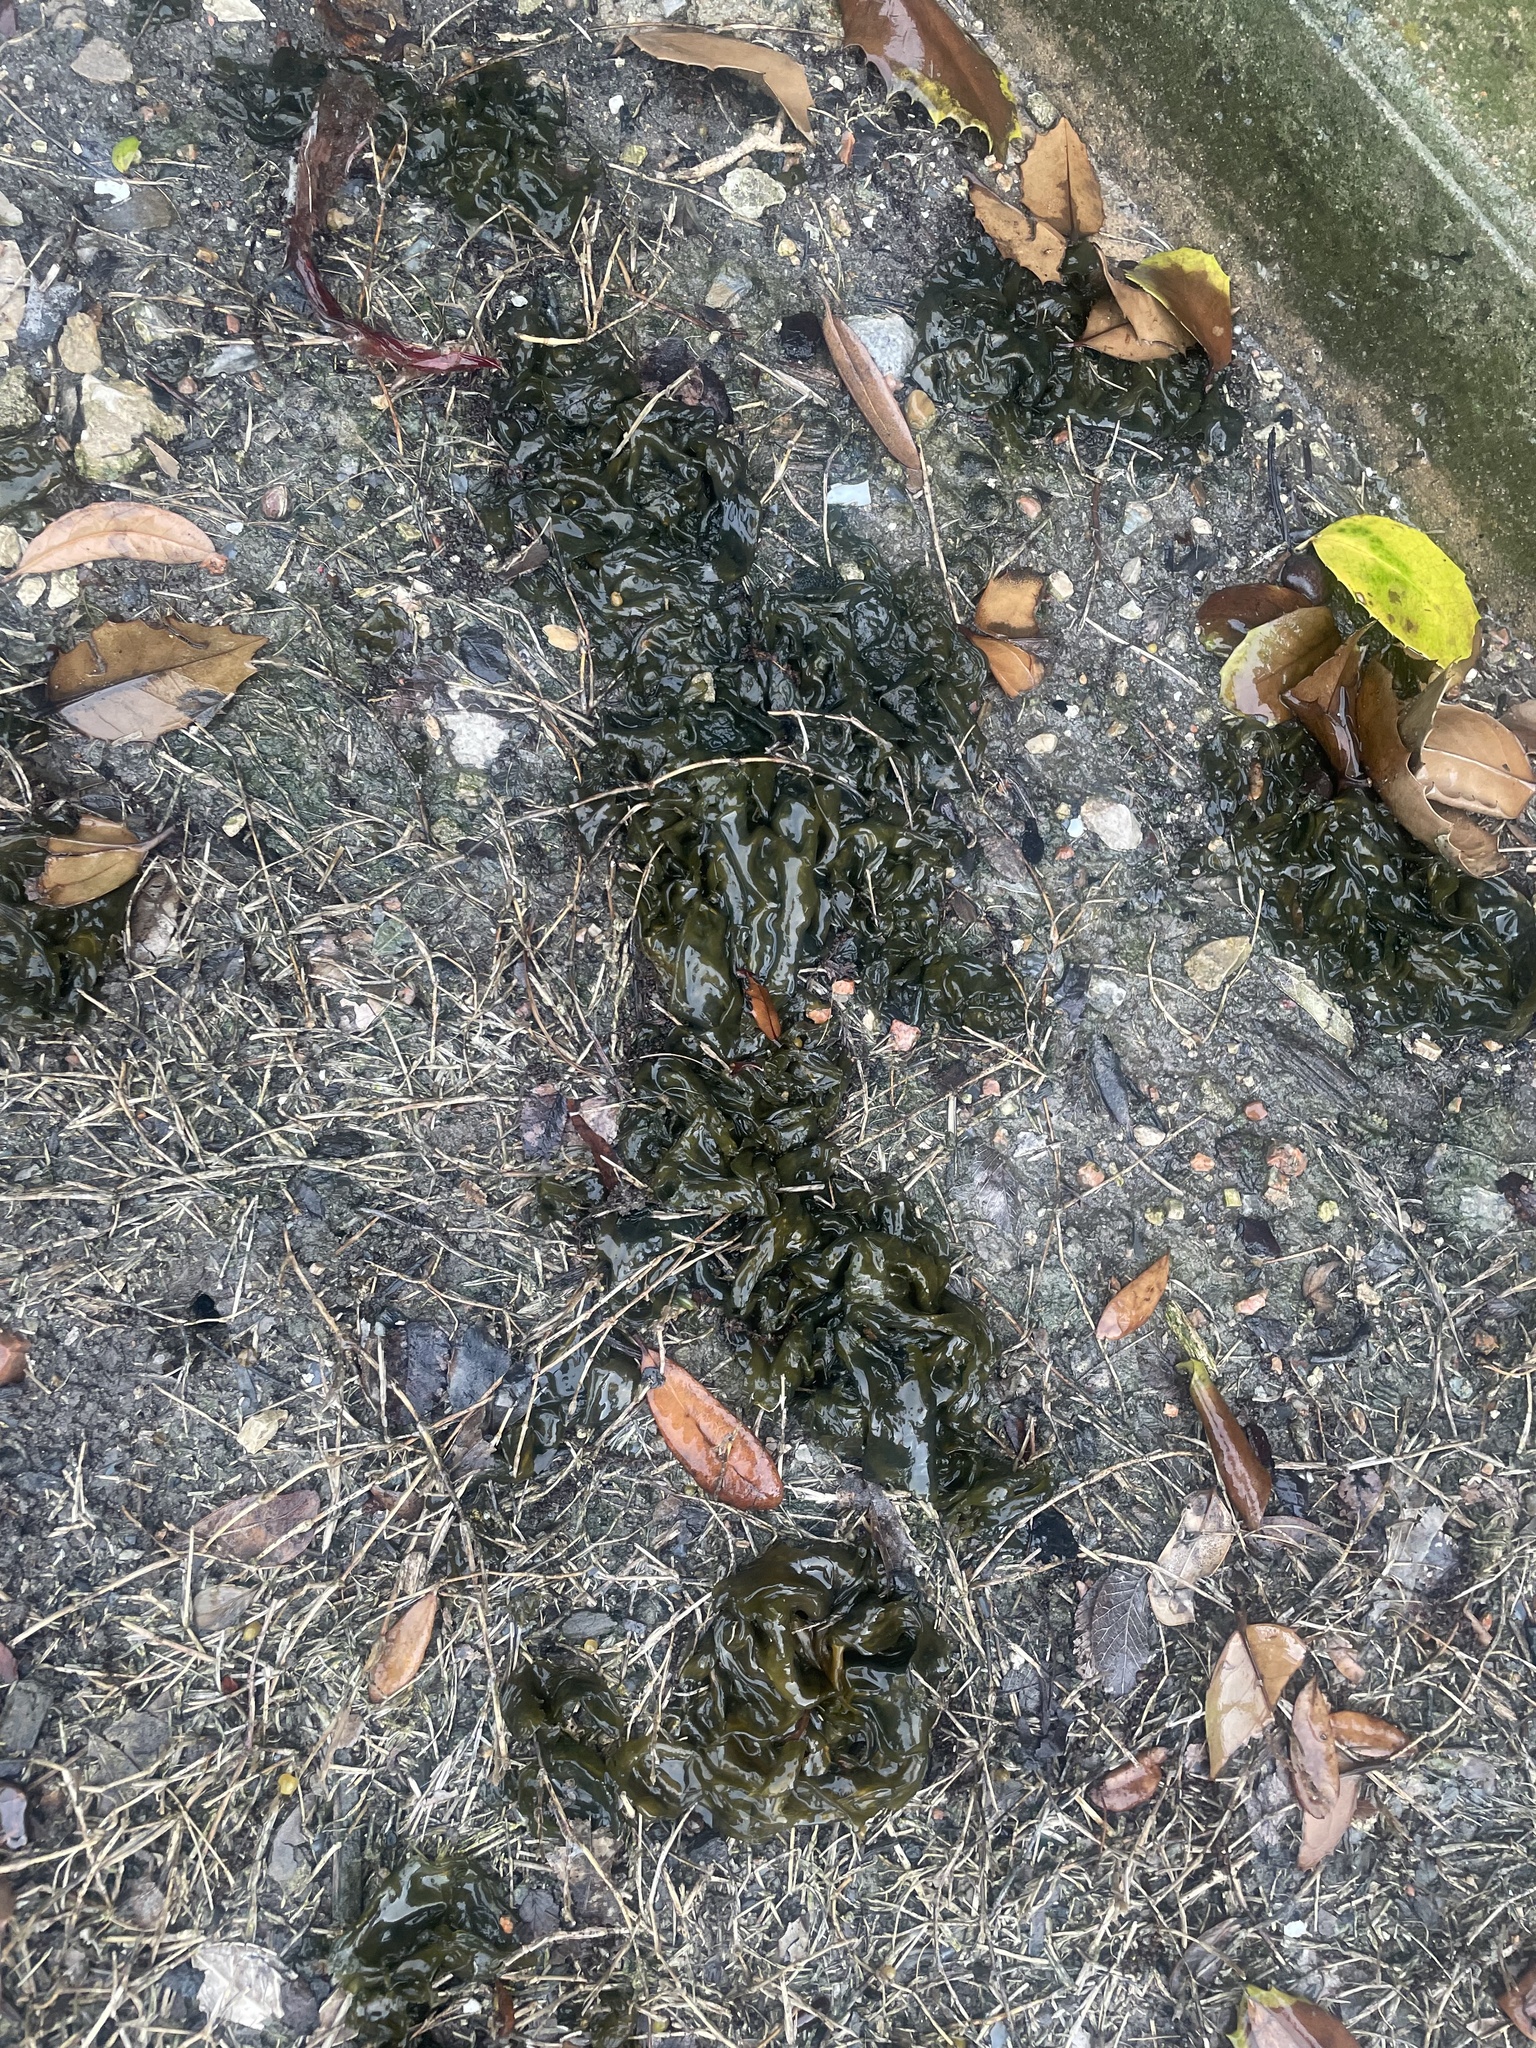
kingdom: Bacteria
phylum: Cyanobacteria
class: Cyanobacteriia
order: Cyanobacteriales
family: Nostocaceae
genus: Nostoc
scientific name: Nostoc commune
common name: Star jelly
